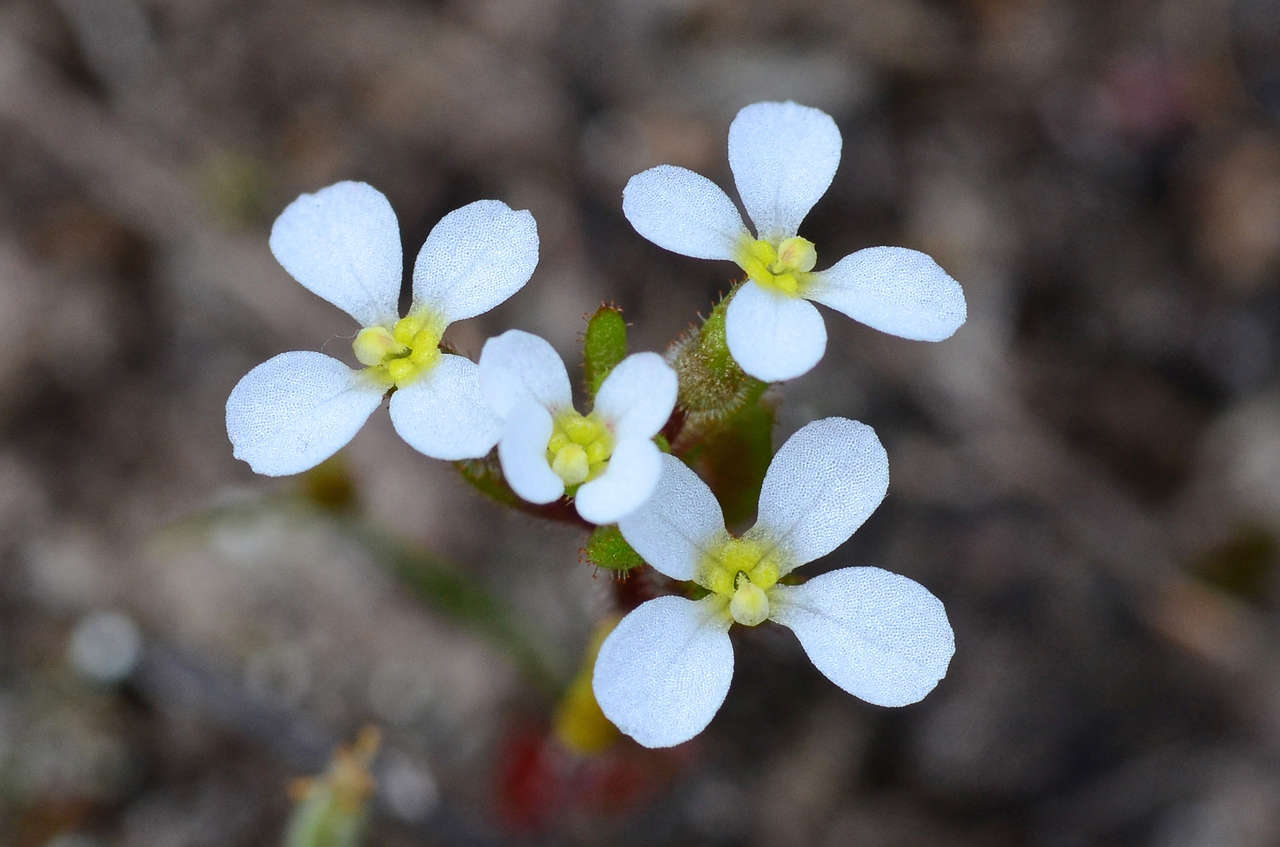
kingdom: Plantae
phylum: Tracheophyta
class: Magnoliopsida
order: Asterales
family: Stylidiaceae
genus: Levenhookia
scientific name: Levenhookia dubia
